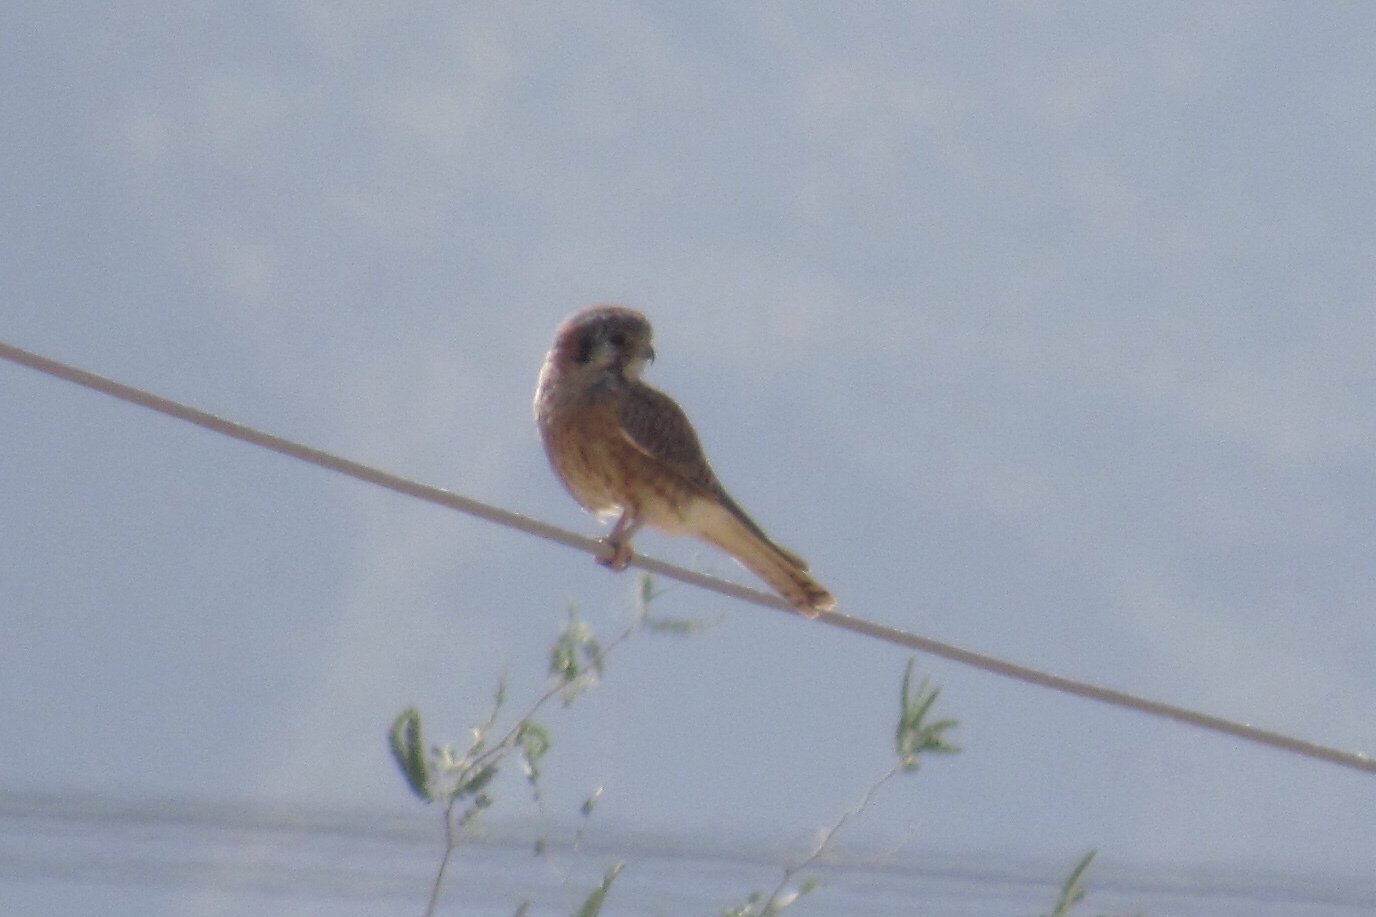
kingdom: Animalia
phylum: Chordata
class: Aves
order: Falconiformes
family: Falconidae
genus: Falco
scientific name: Falco sparverius
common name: American kestrel
